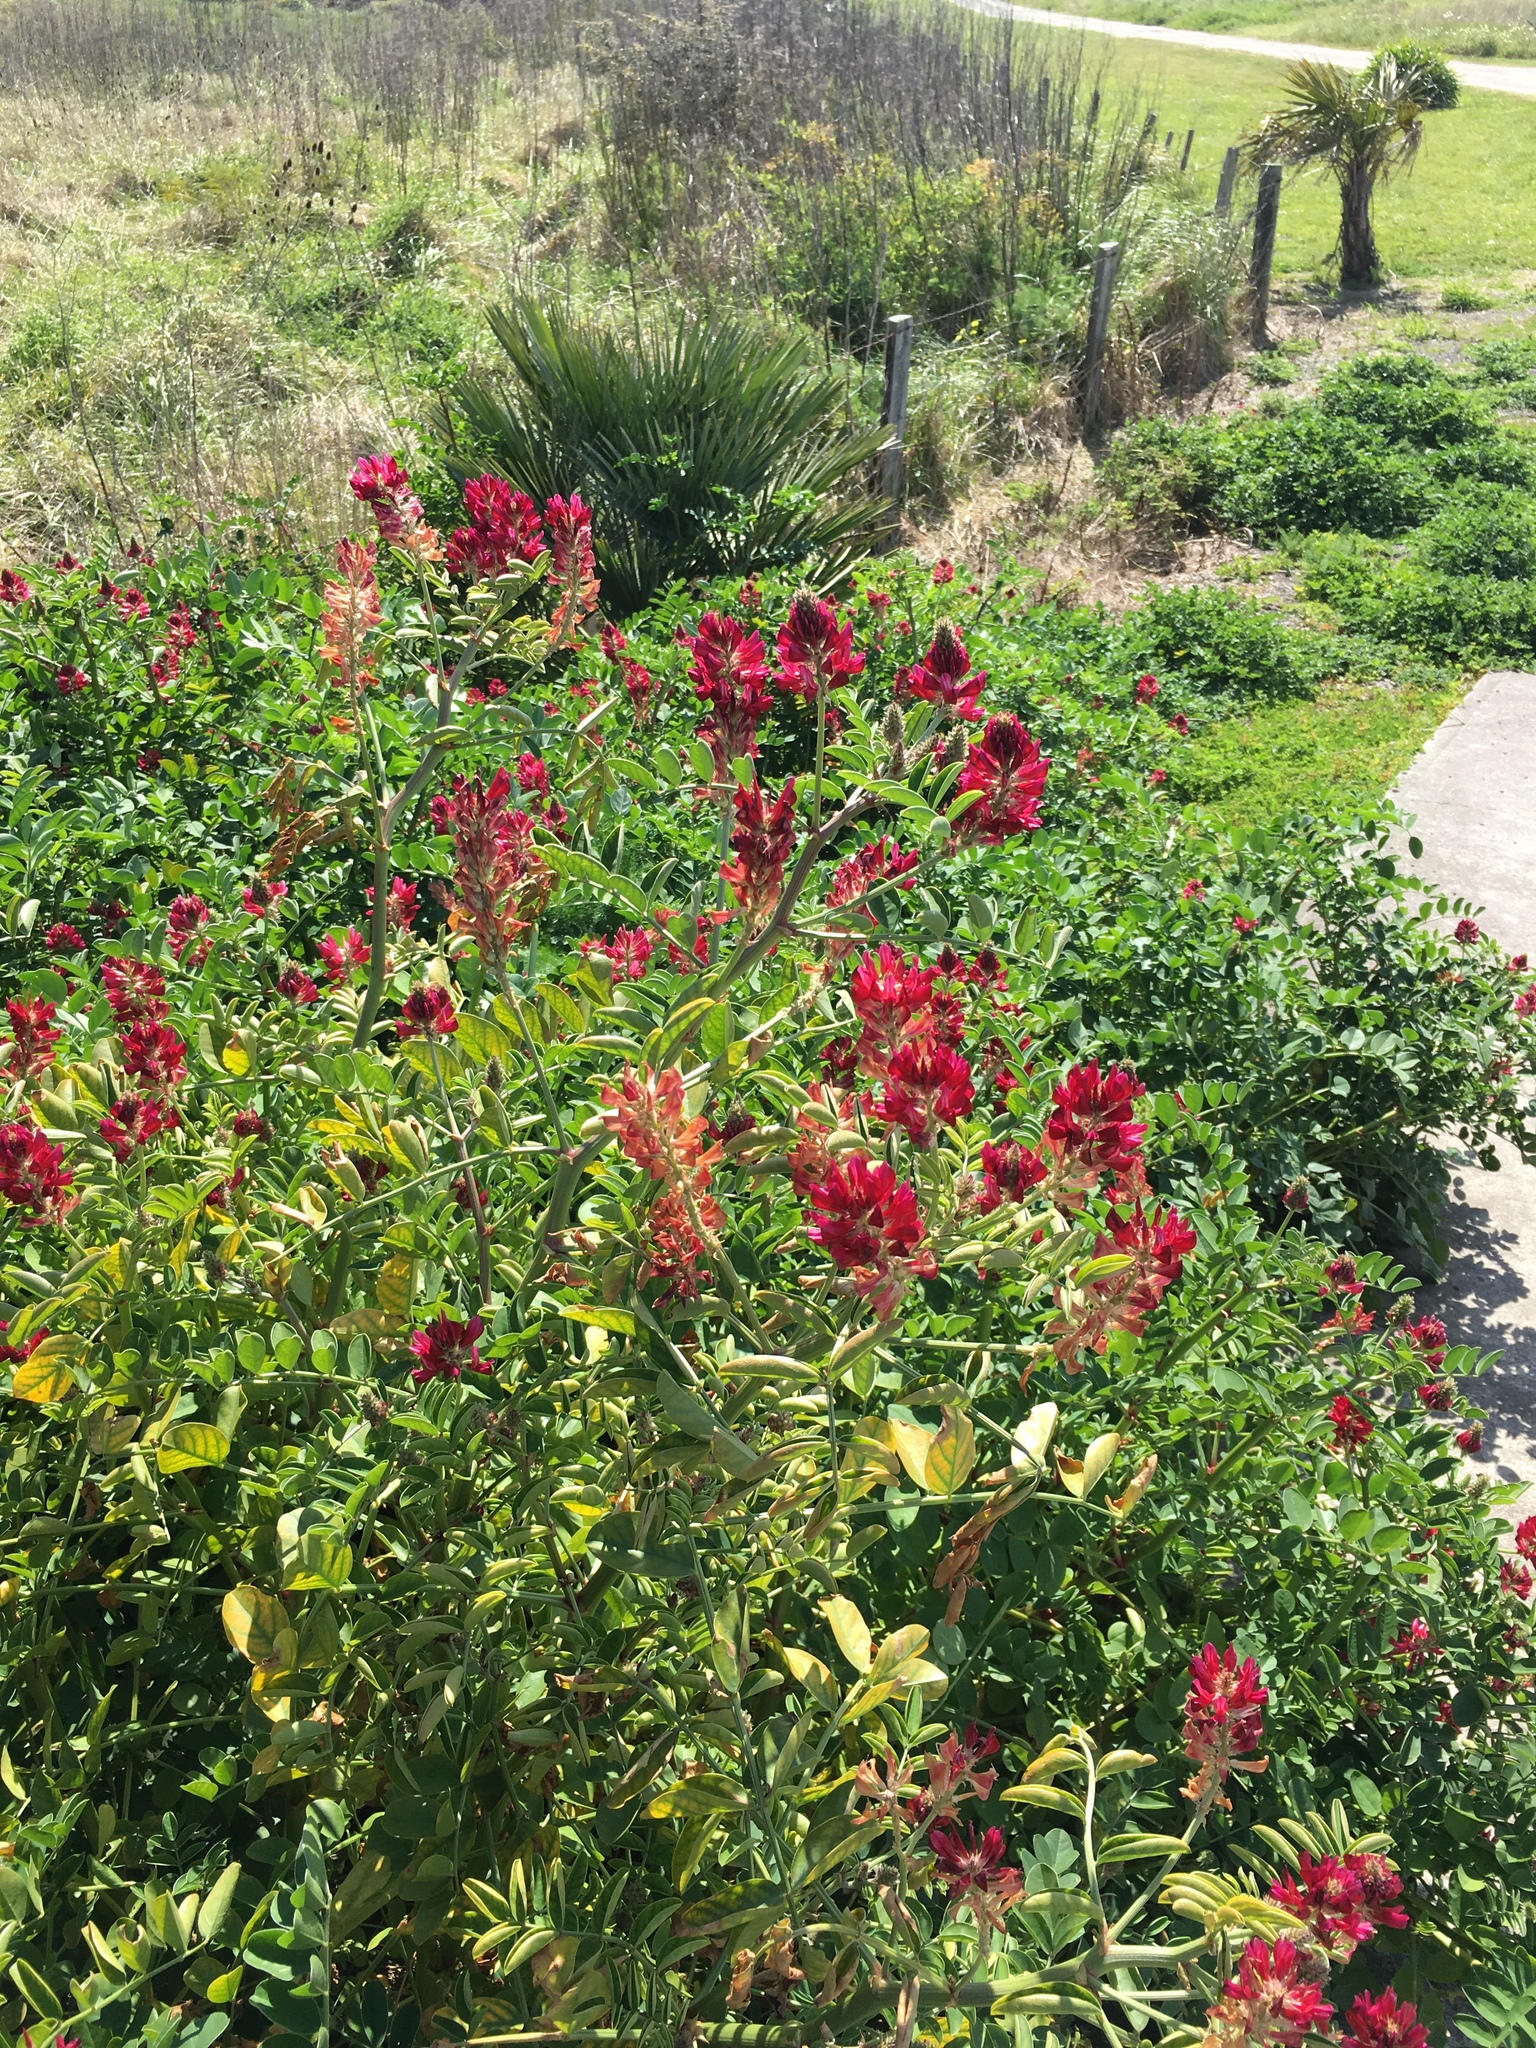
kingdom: Plantae
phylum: Tracheophyta
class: Magnoliopsida
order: Fabales
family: Fabaceae
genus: Sulla
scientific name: Sulla coronaria
